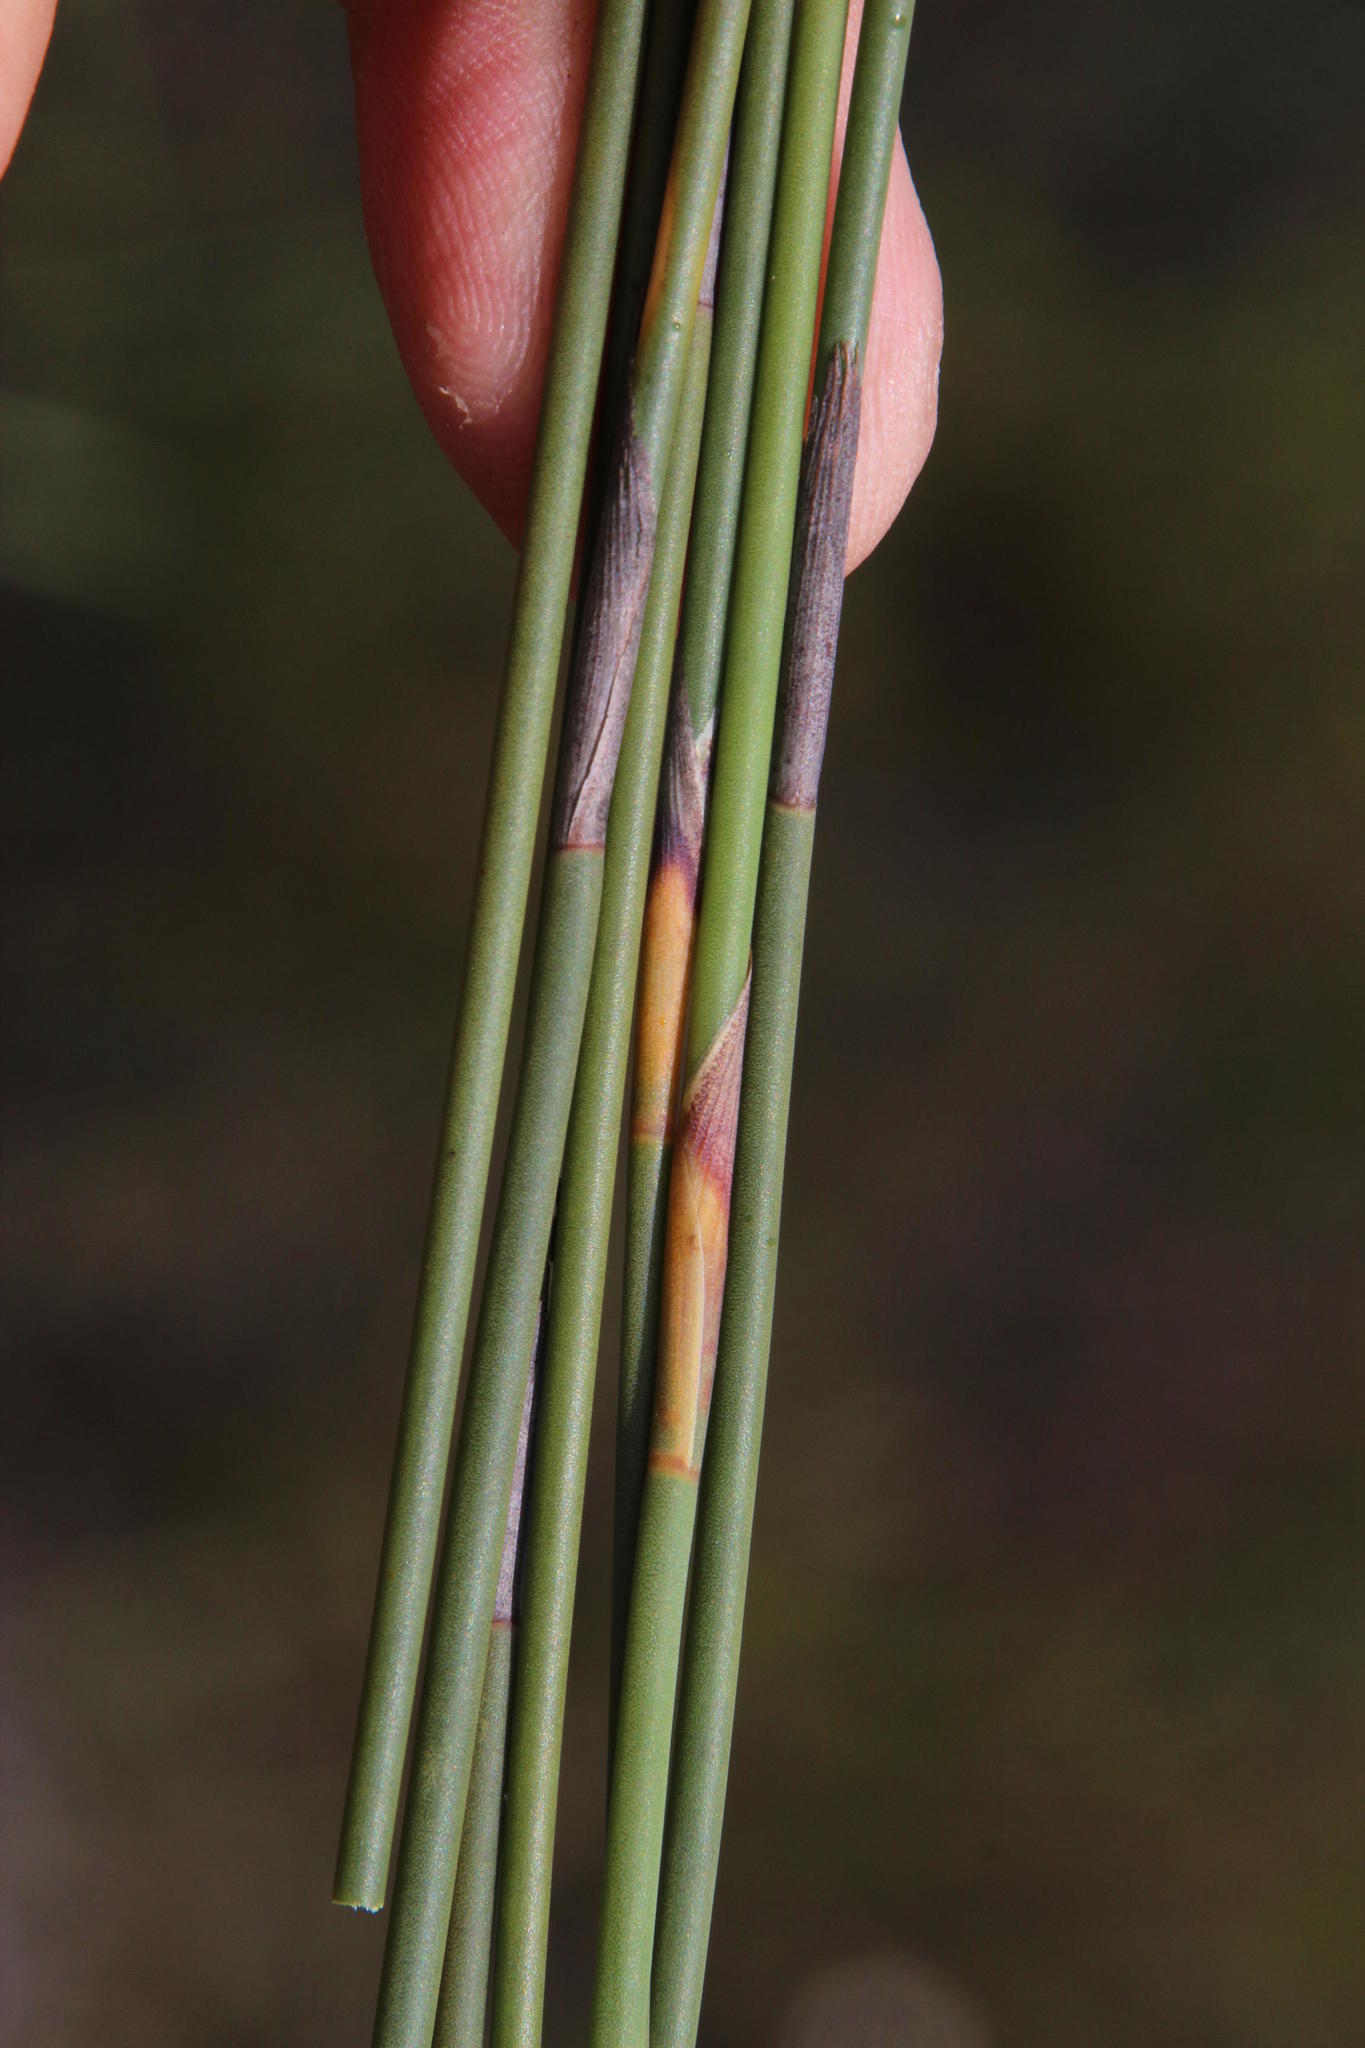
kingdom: Plantae
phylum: Tracheophyta
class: Liliopsida
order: Poales
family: Restionaceae
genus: Cannomois
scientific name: Cannomois arenicola
